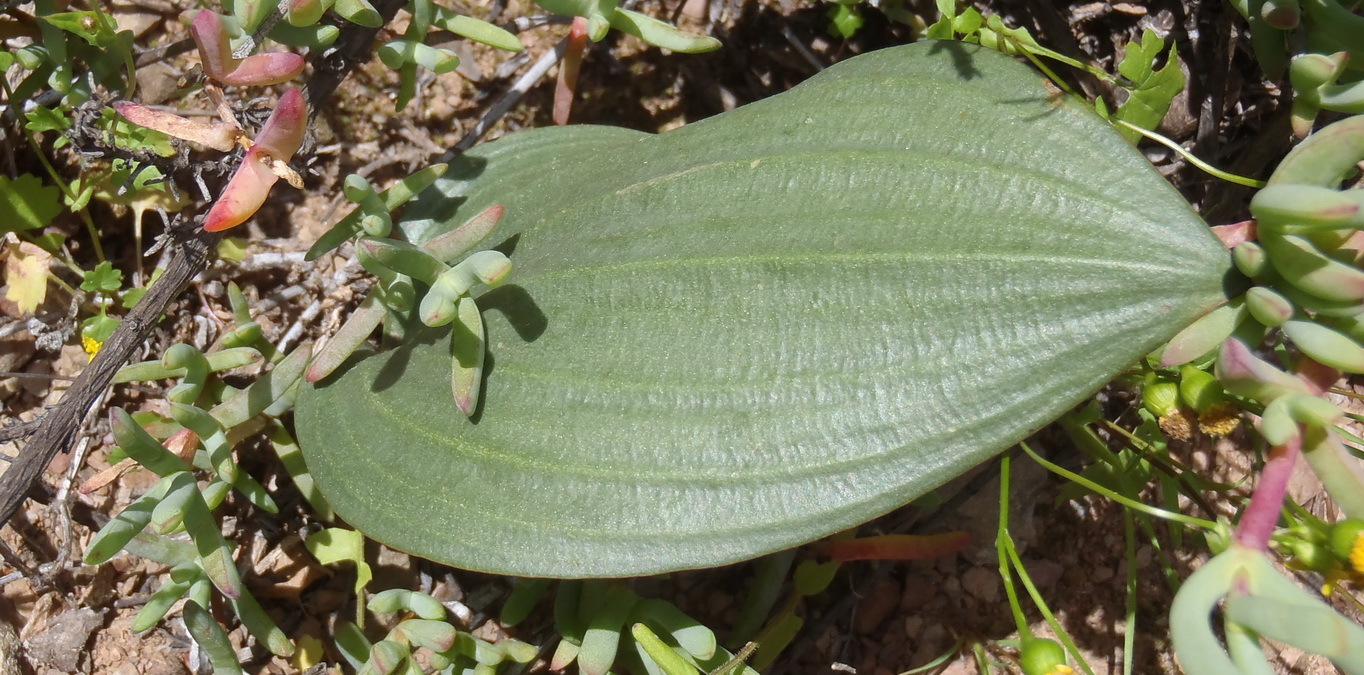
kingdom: Plantae
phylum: Tracheophyta
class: Liliopsida
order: Asparagales
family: Asparagaceae
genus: Eriospermum
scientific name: Eriospermum exile
